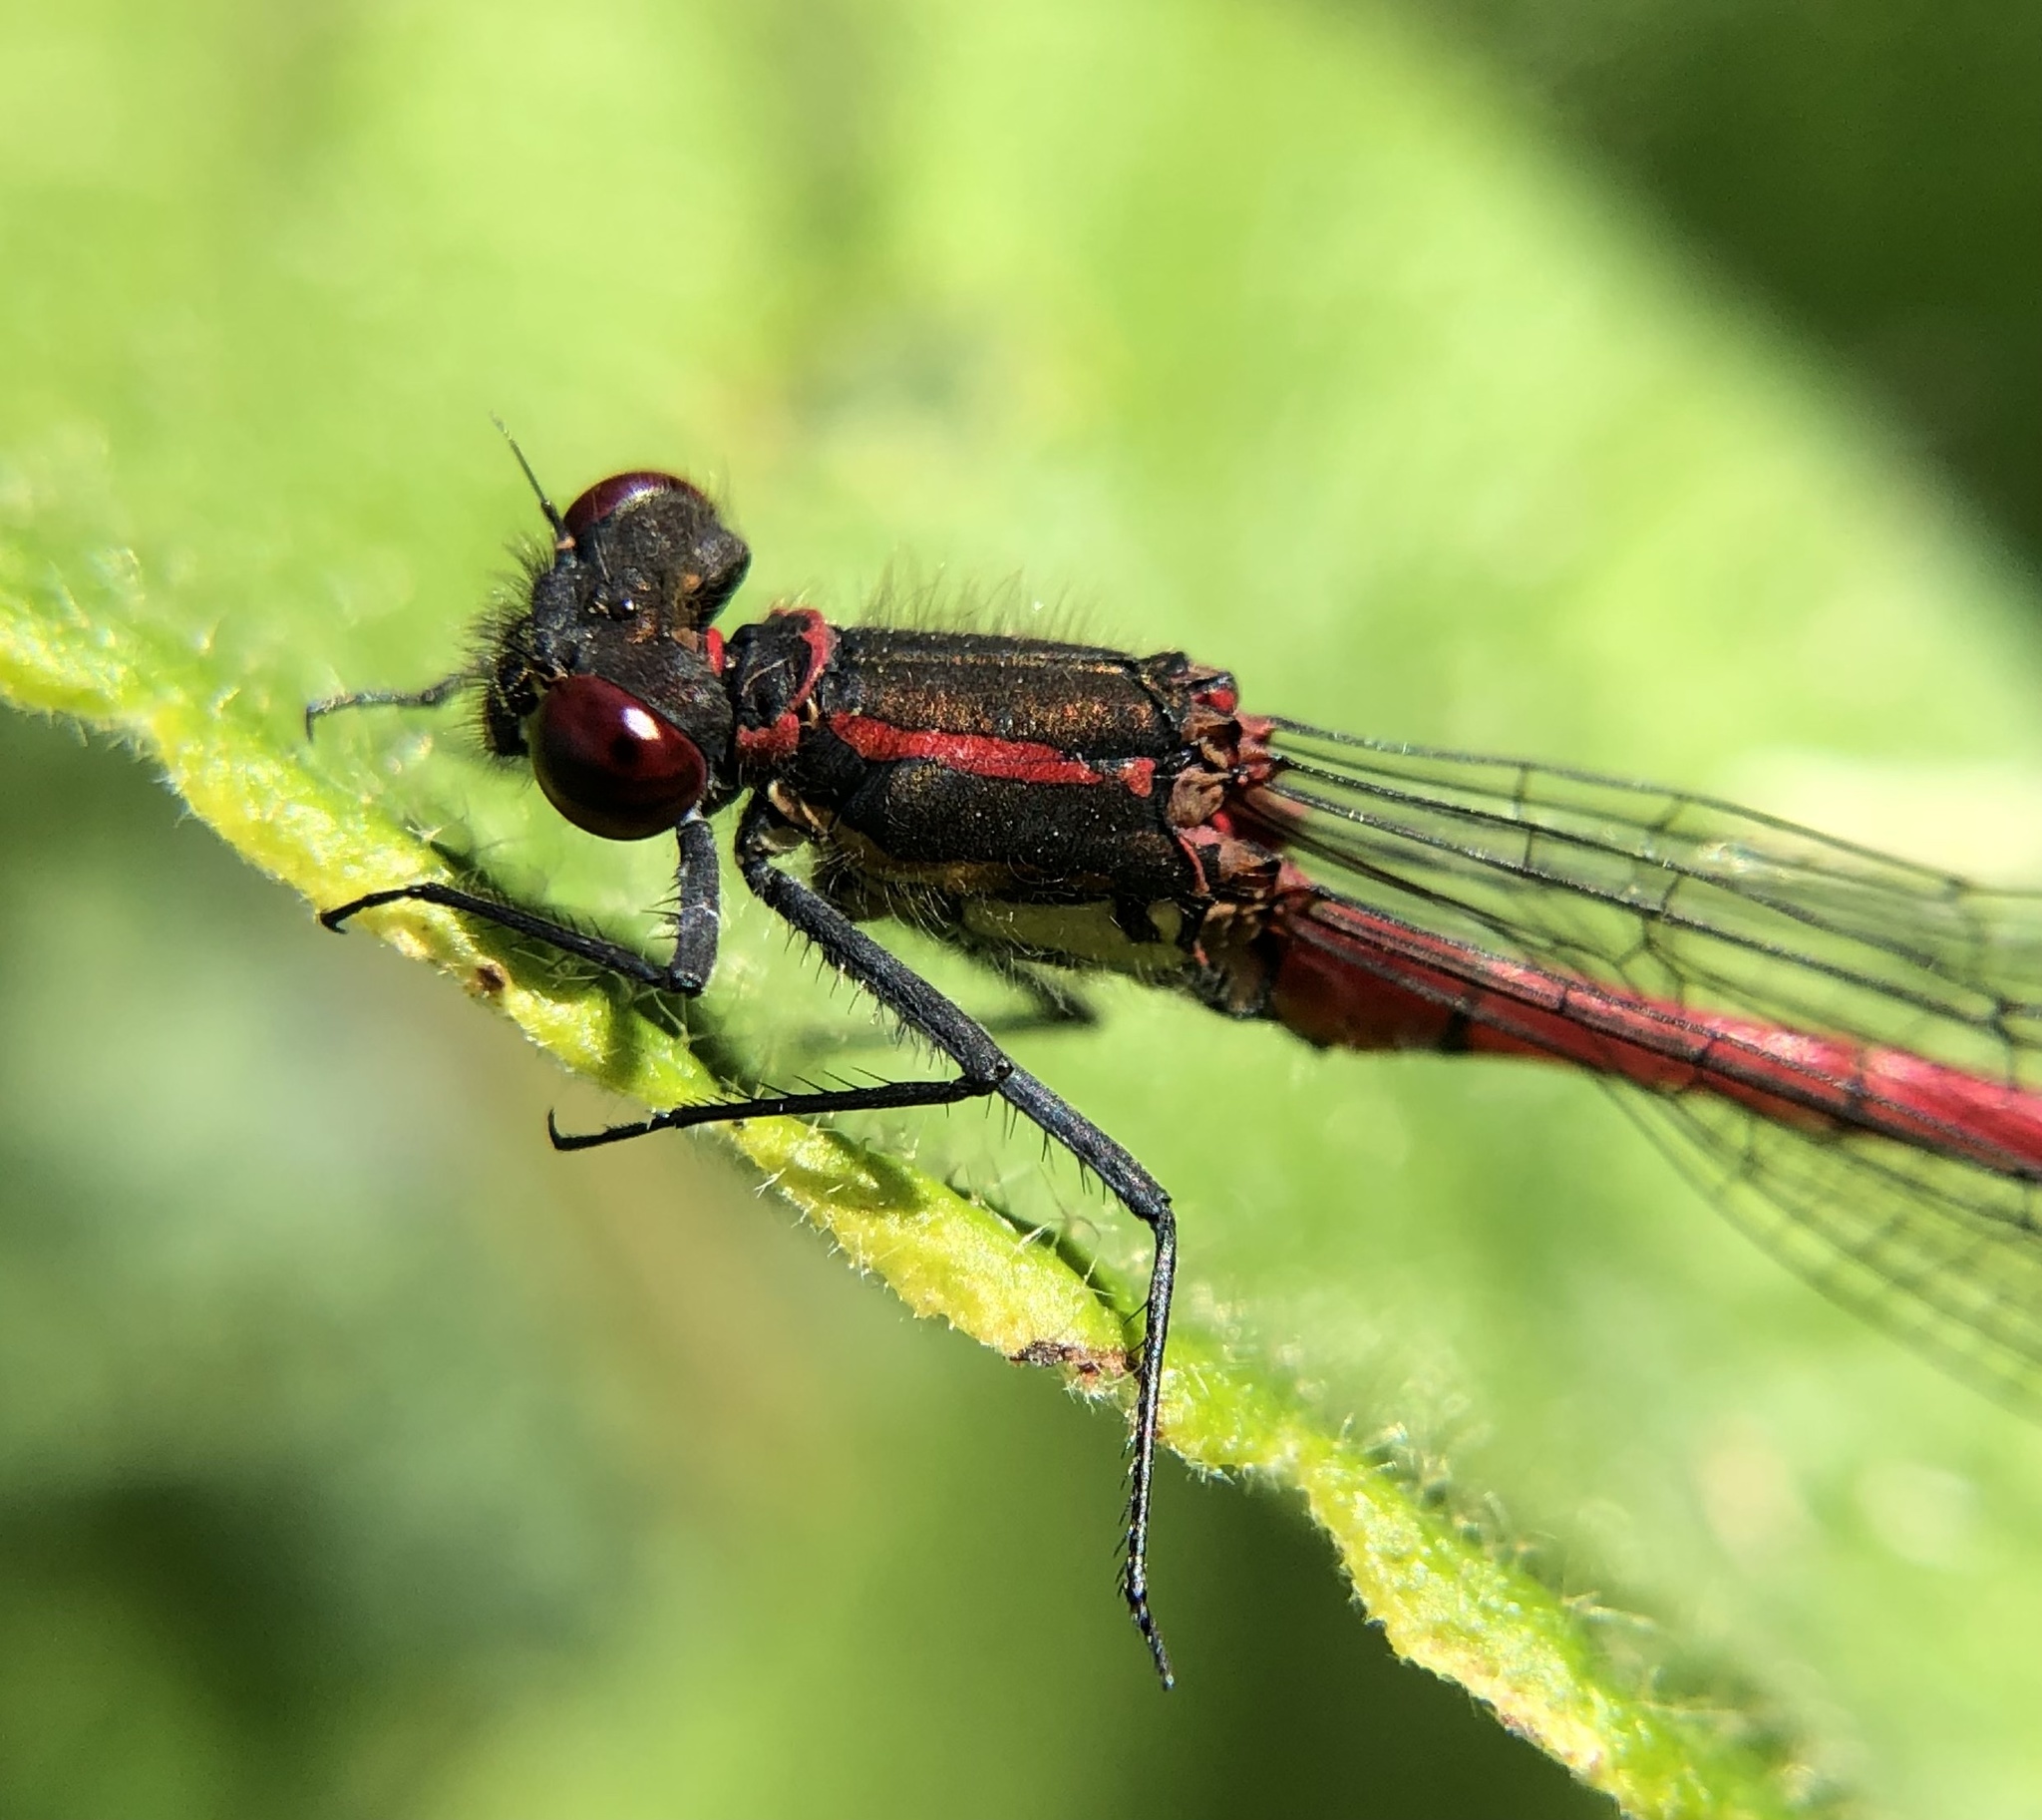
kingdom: Animalia
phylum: Arthropoda
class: Insecta
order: Odonata
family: Coenagrionidae
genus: Pyrrhosoma
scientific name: Pyrrhosoma nymphula
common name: Large red damsel
